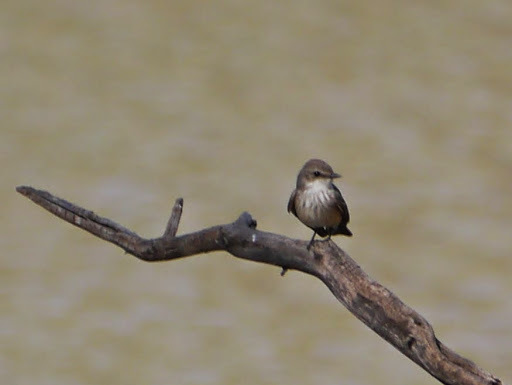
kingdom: Animalia
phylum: Chordata
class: Aves
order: Passeriformes
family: Tyrannidae
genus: Pyrocephalus
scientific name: Pyrocephalus rubinus
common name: Vermilion flycatcher
